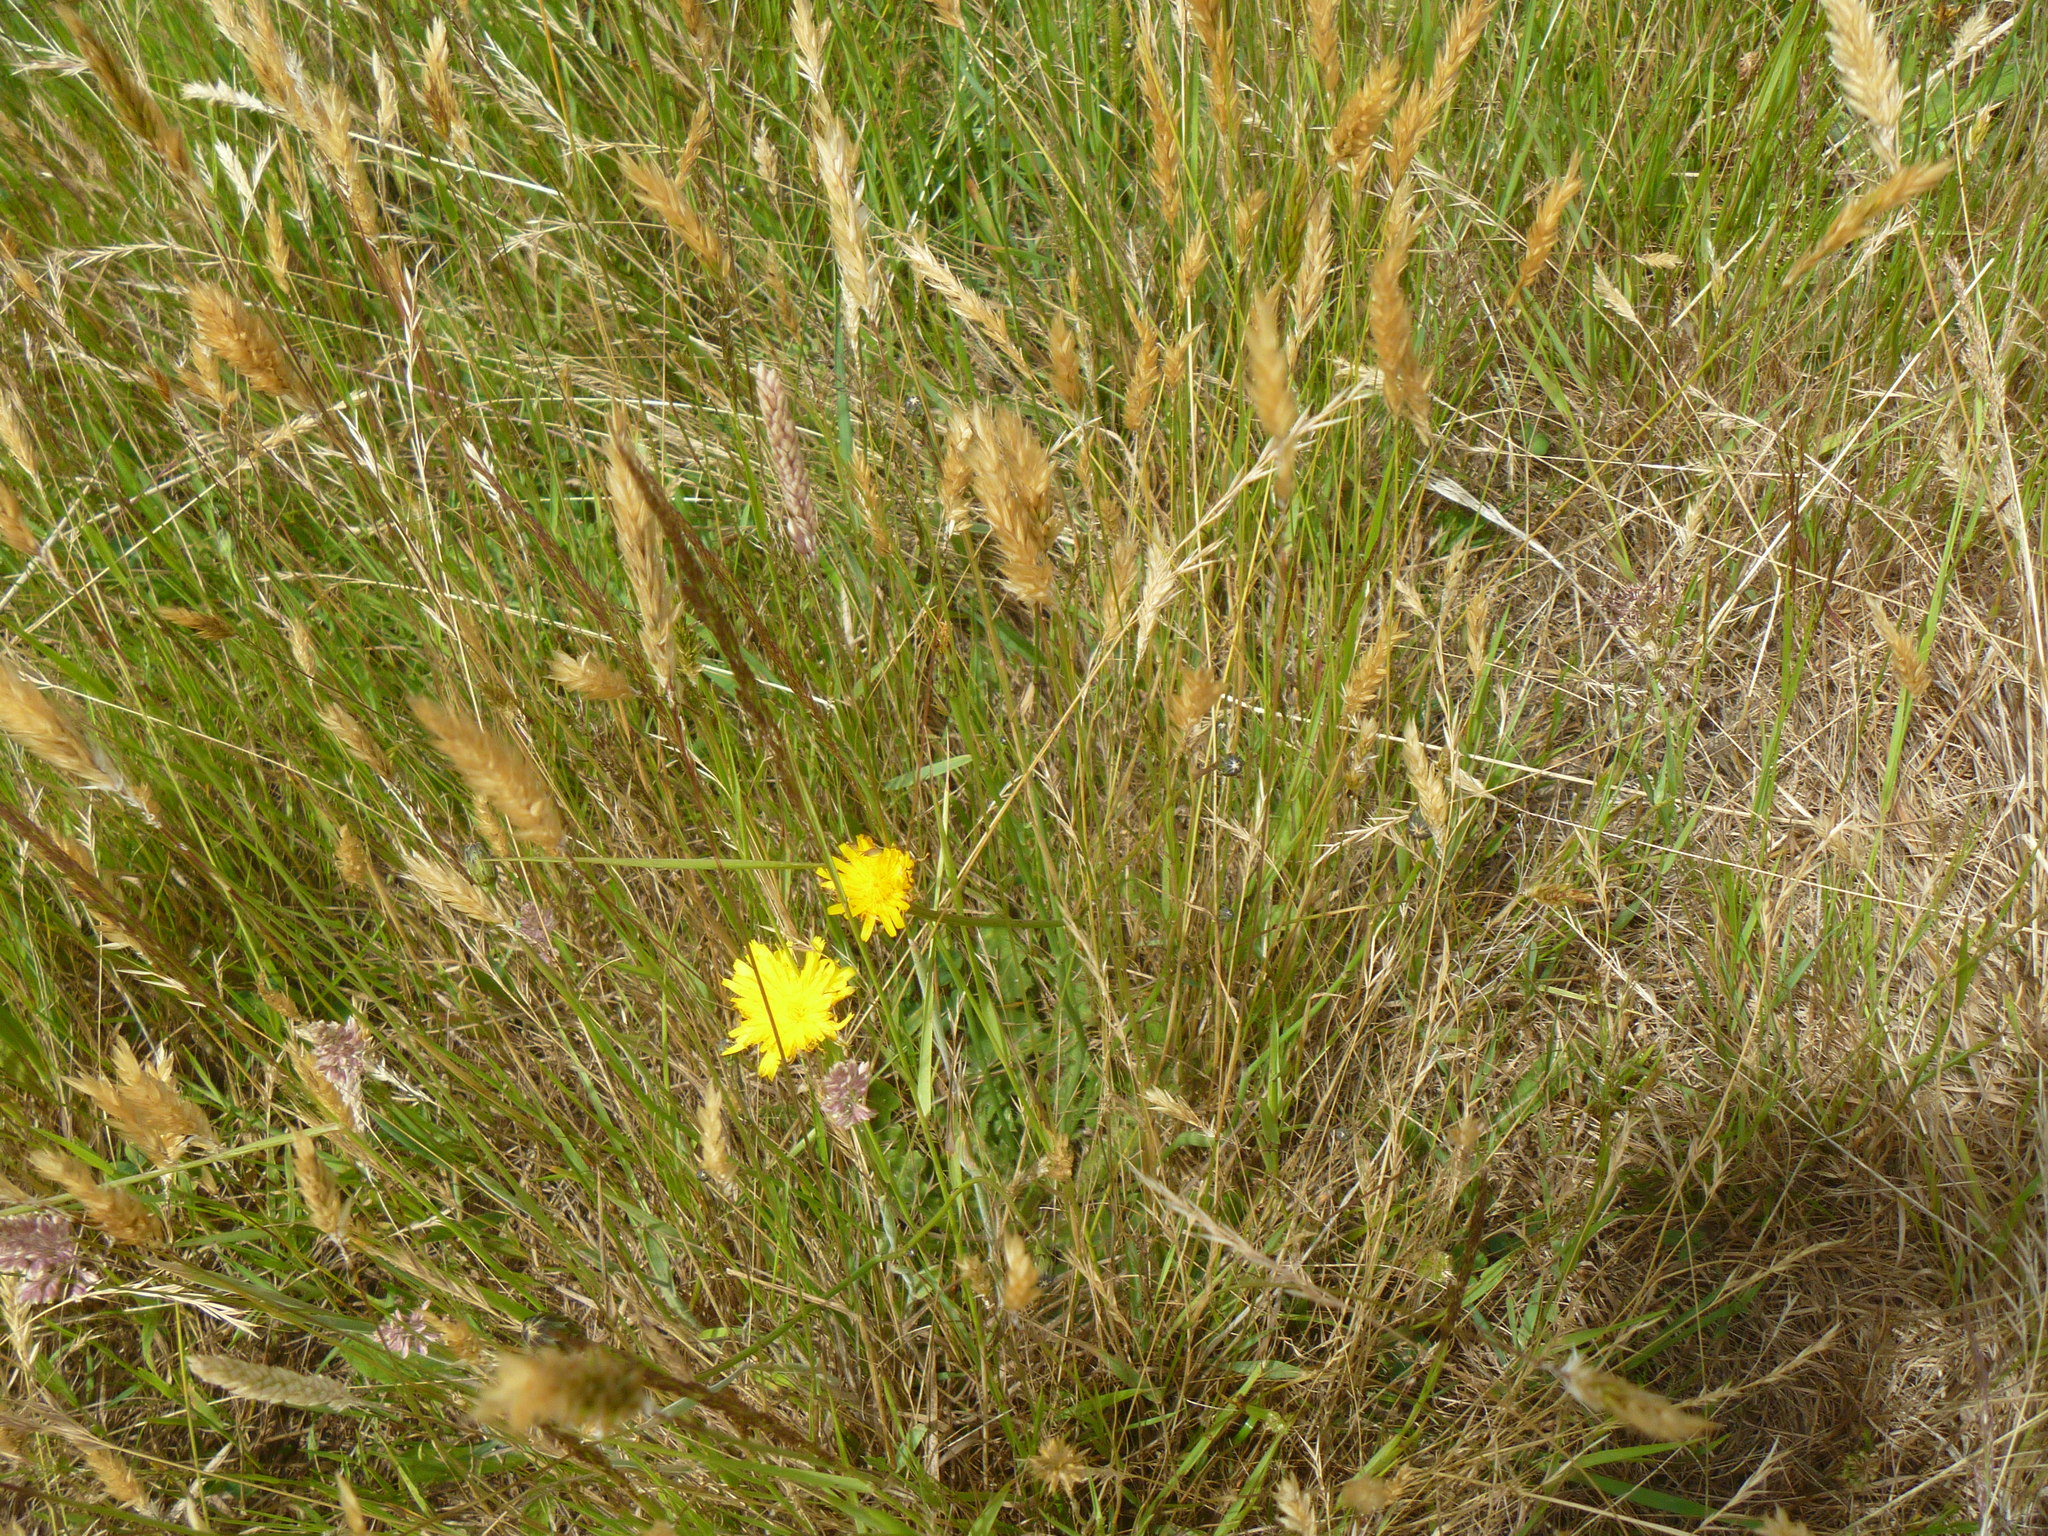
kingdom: Plantae
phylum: Tracheophyta
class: Magnoliopsida
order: Asterales
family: Asteraceae
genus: Hypochaeris
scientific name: Hypochaeris radicata
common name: Flatweed
